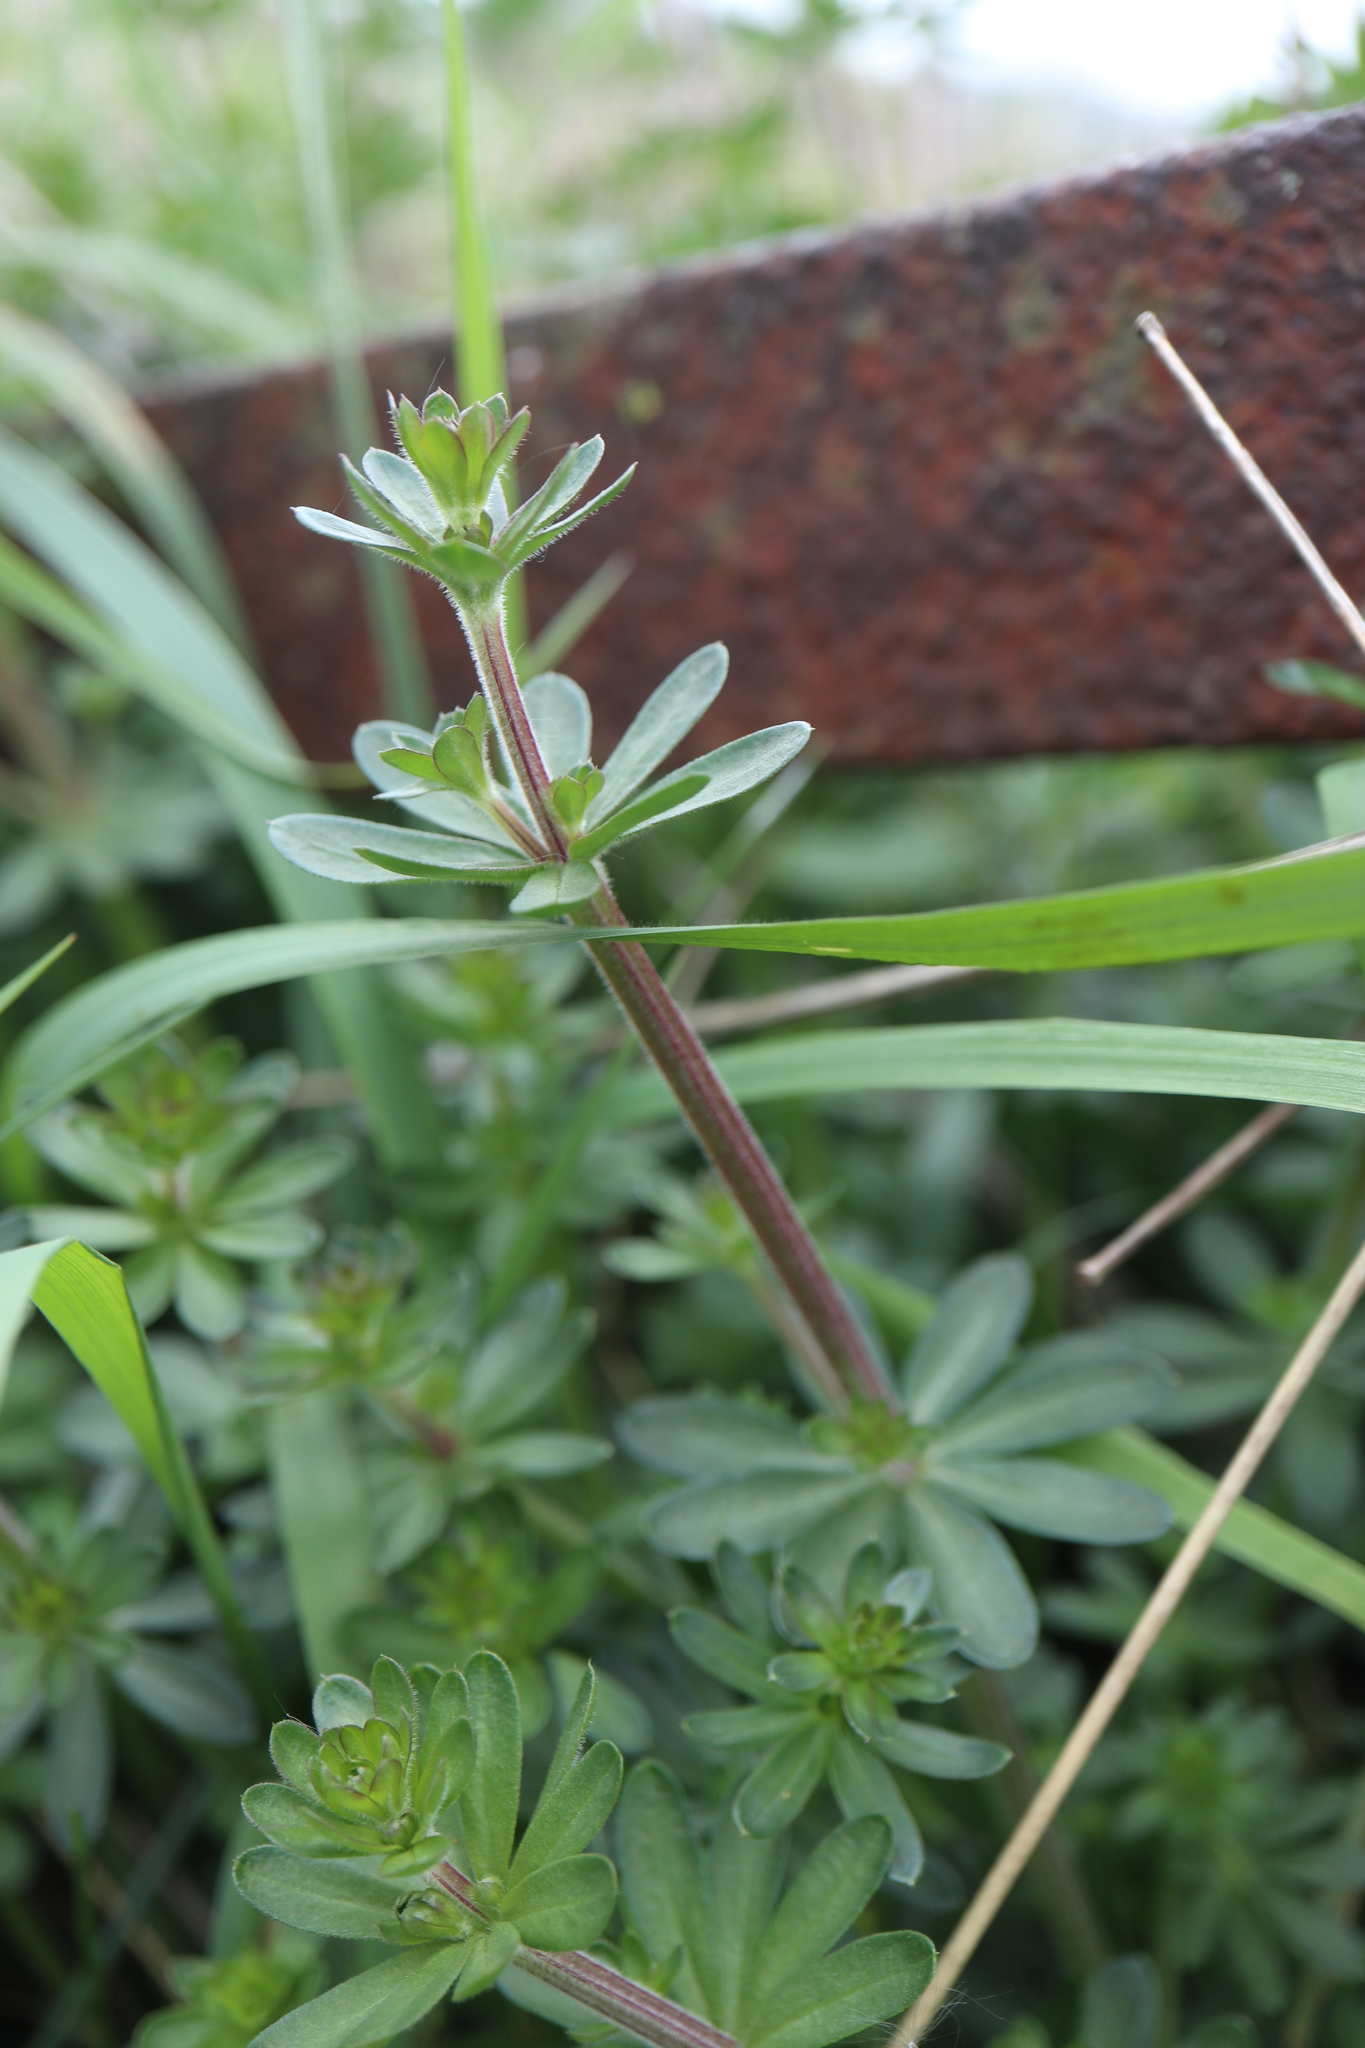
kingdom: Plantae
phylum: Tracheophyta
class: Magnoliopsida
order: Gentianales
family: Rubiaceae
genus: Galium
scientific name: Galium mollugo
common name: Hedge bedstraw
